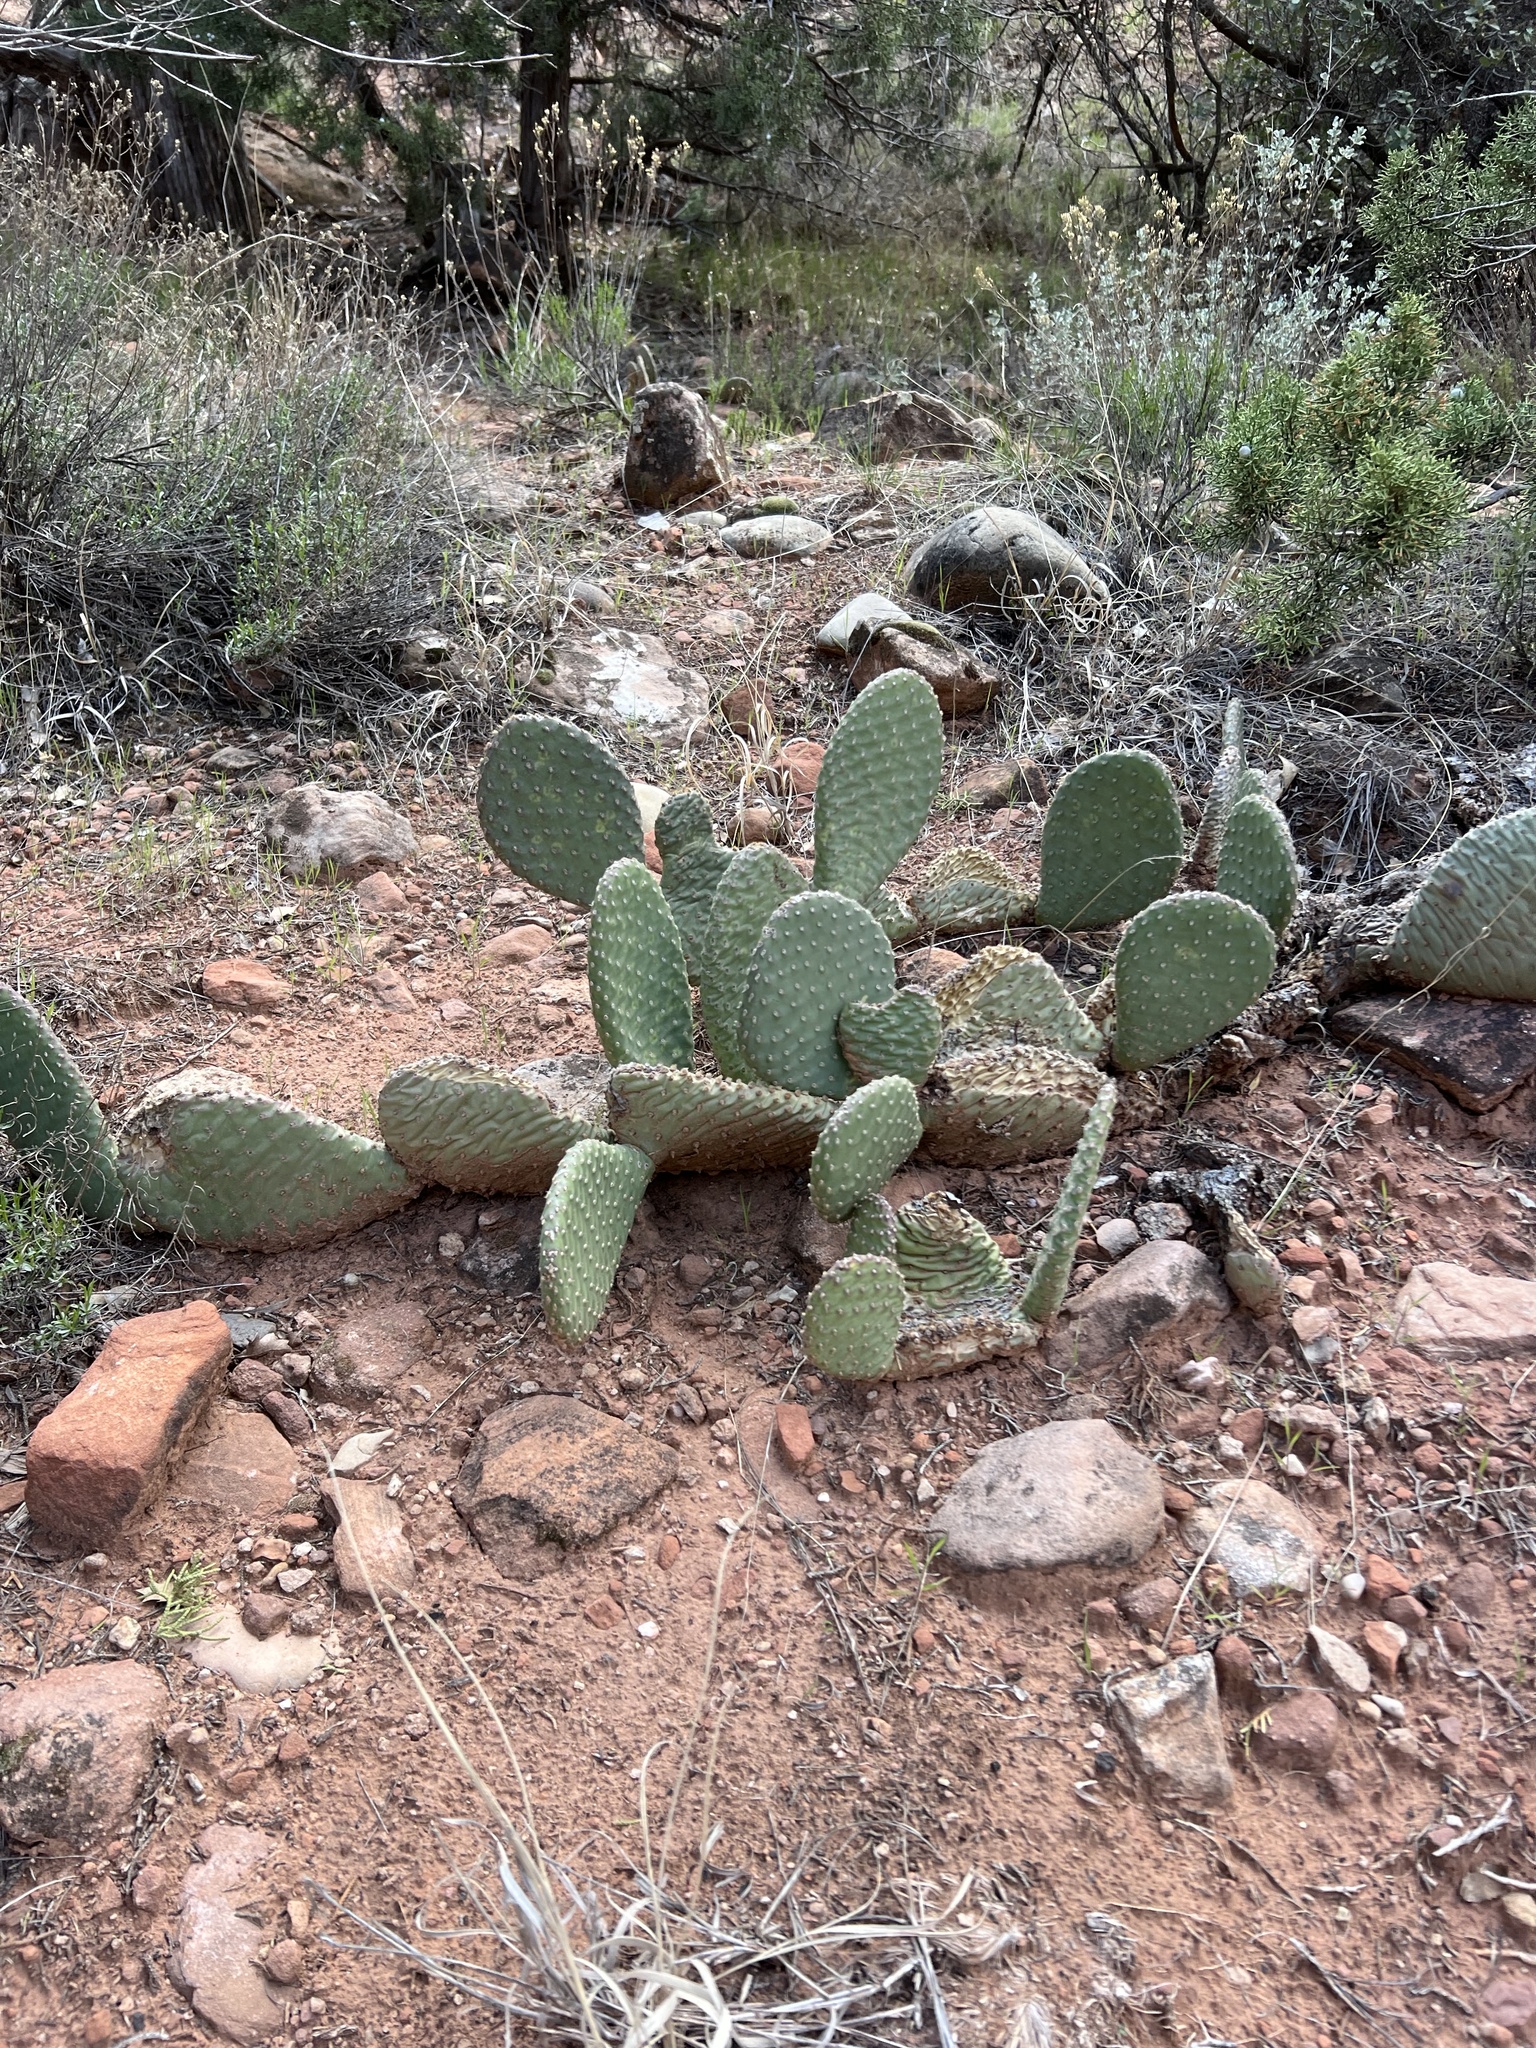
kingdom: Plantae
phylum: Tracheophyta
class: Magnoliopsida
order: Caryophyllales
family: Cactaceae
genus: Opuntia
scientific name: Opuntia aurea
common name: Golden prickly-pear
